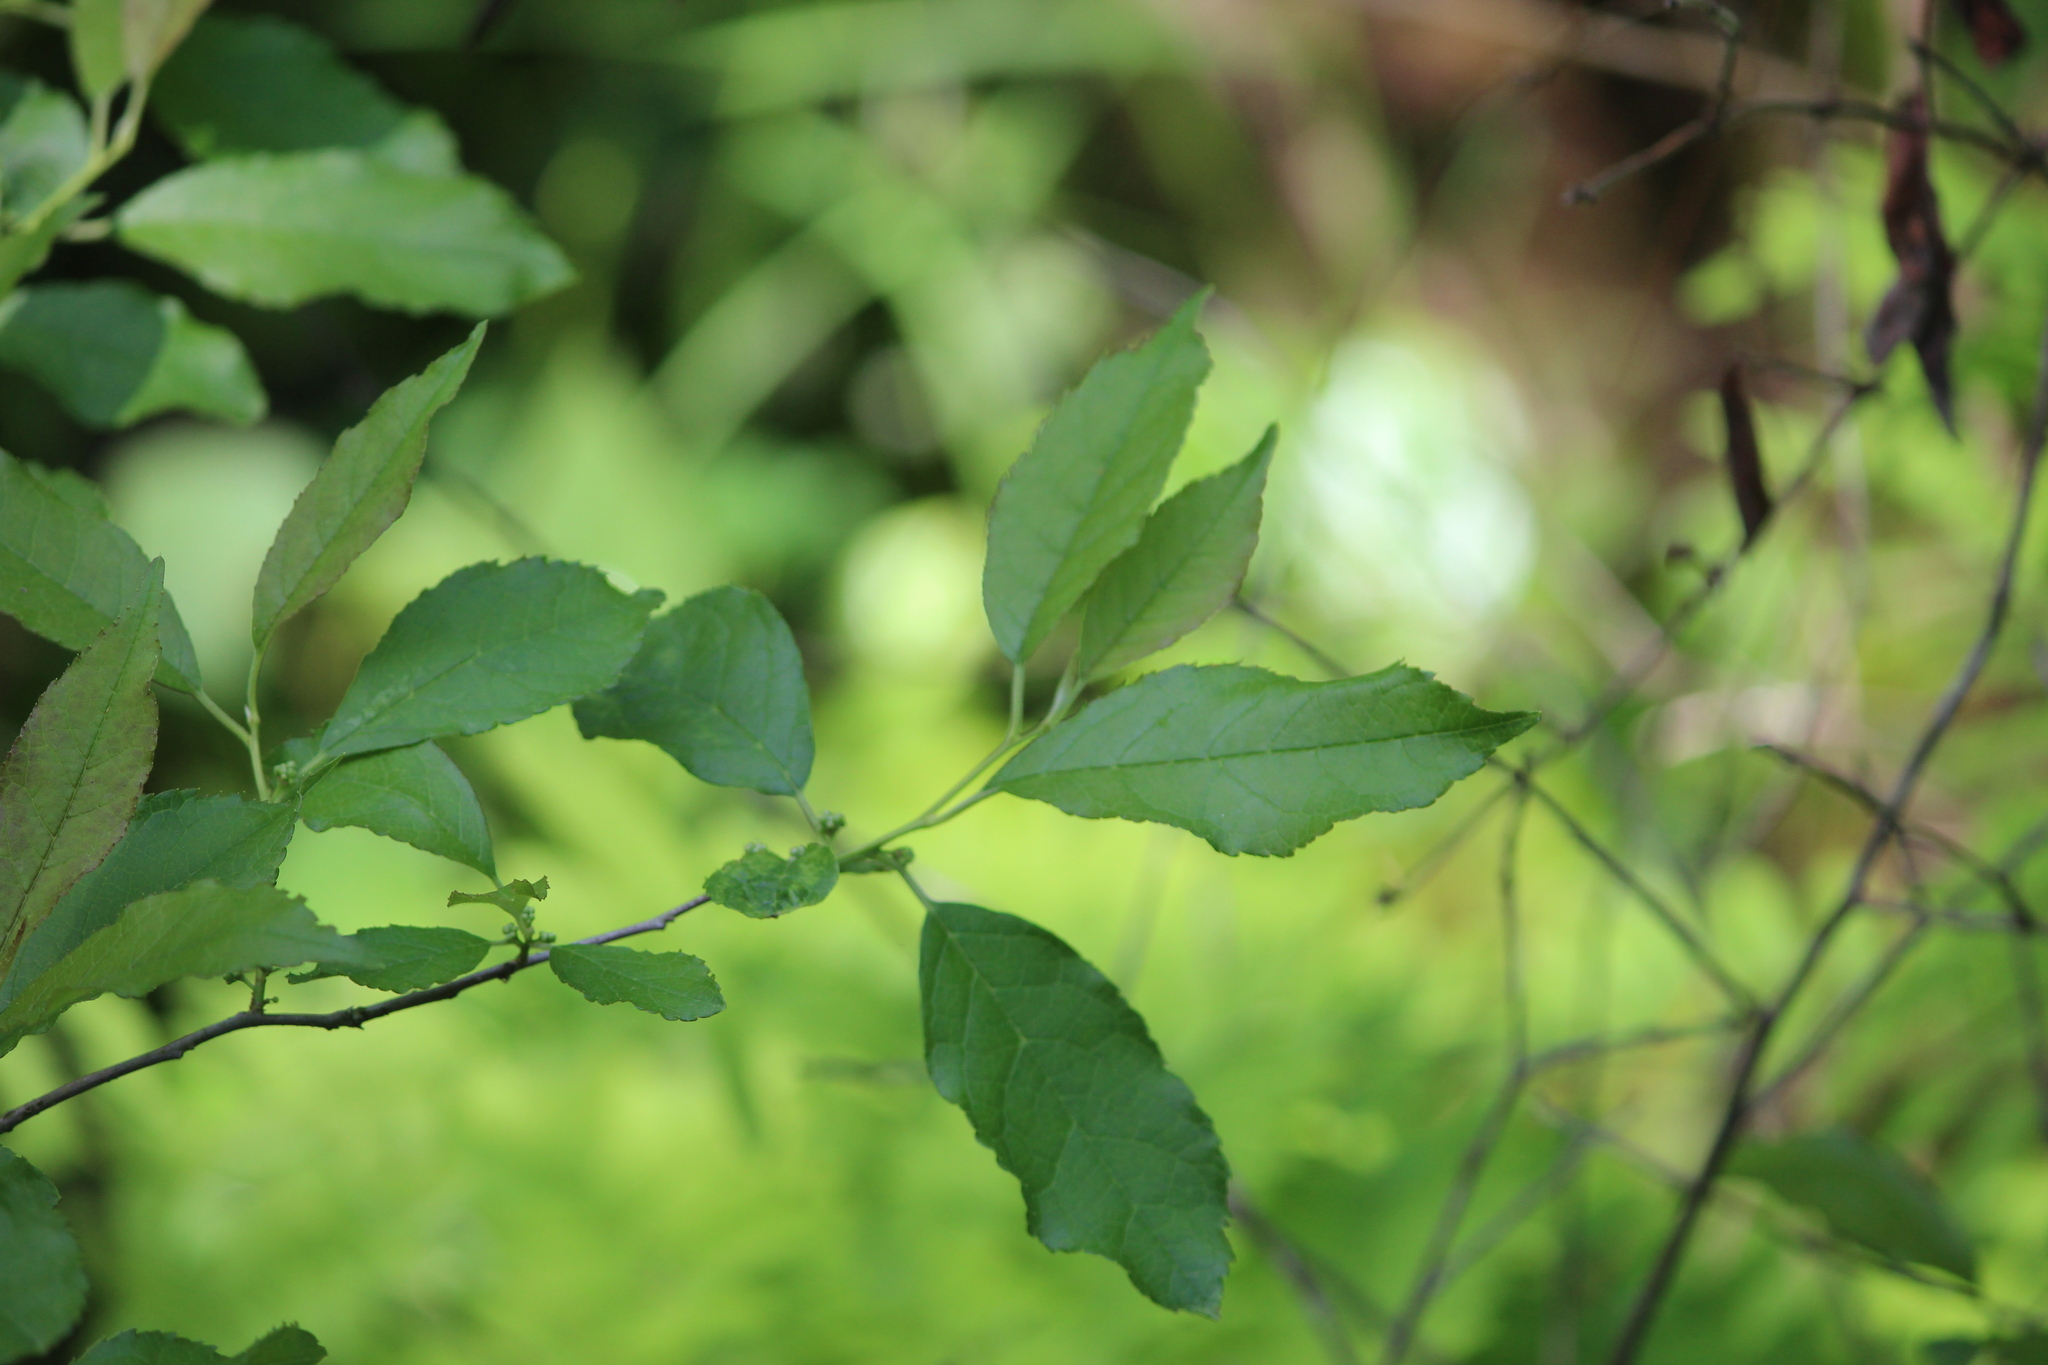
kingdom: Plantae
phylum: Tracheophyta
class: Magnoliopsida
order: Aquifoliales
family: Aquifoliaceae
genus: Ilex
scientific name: Ilex verticillata
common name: Virginia winterberry
